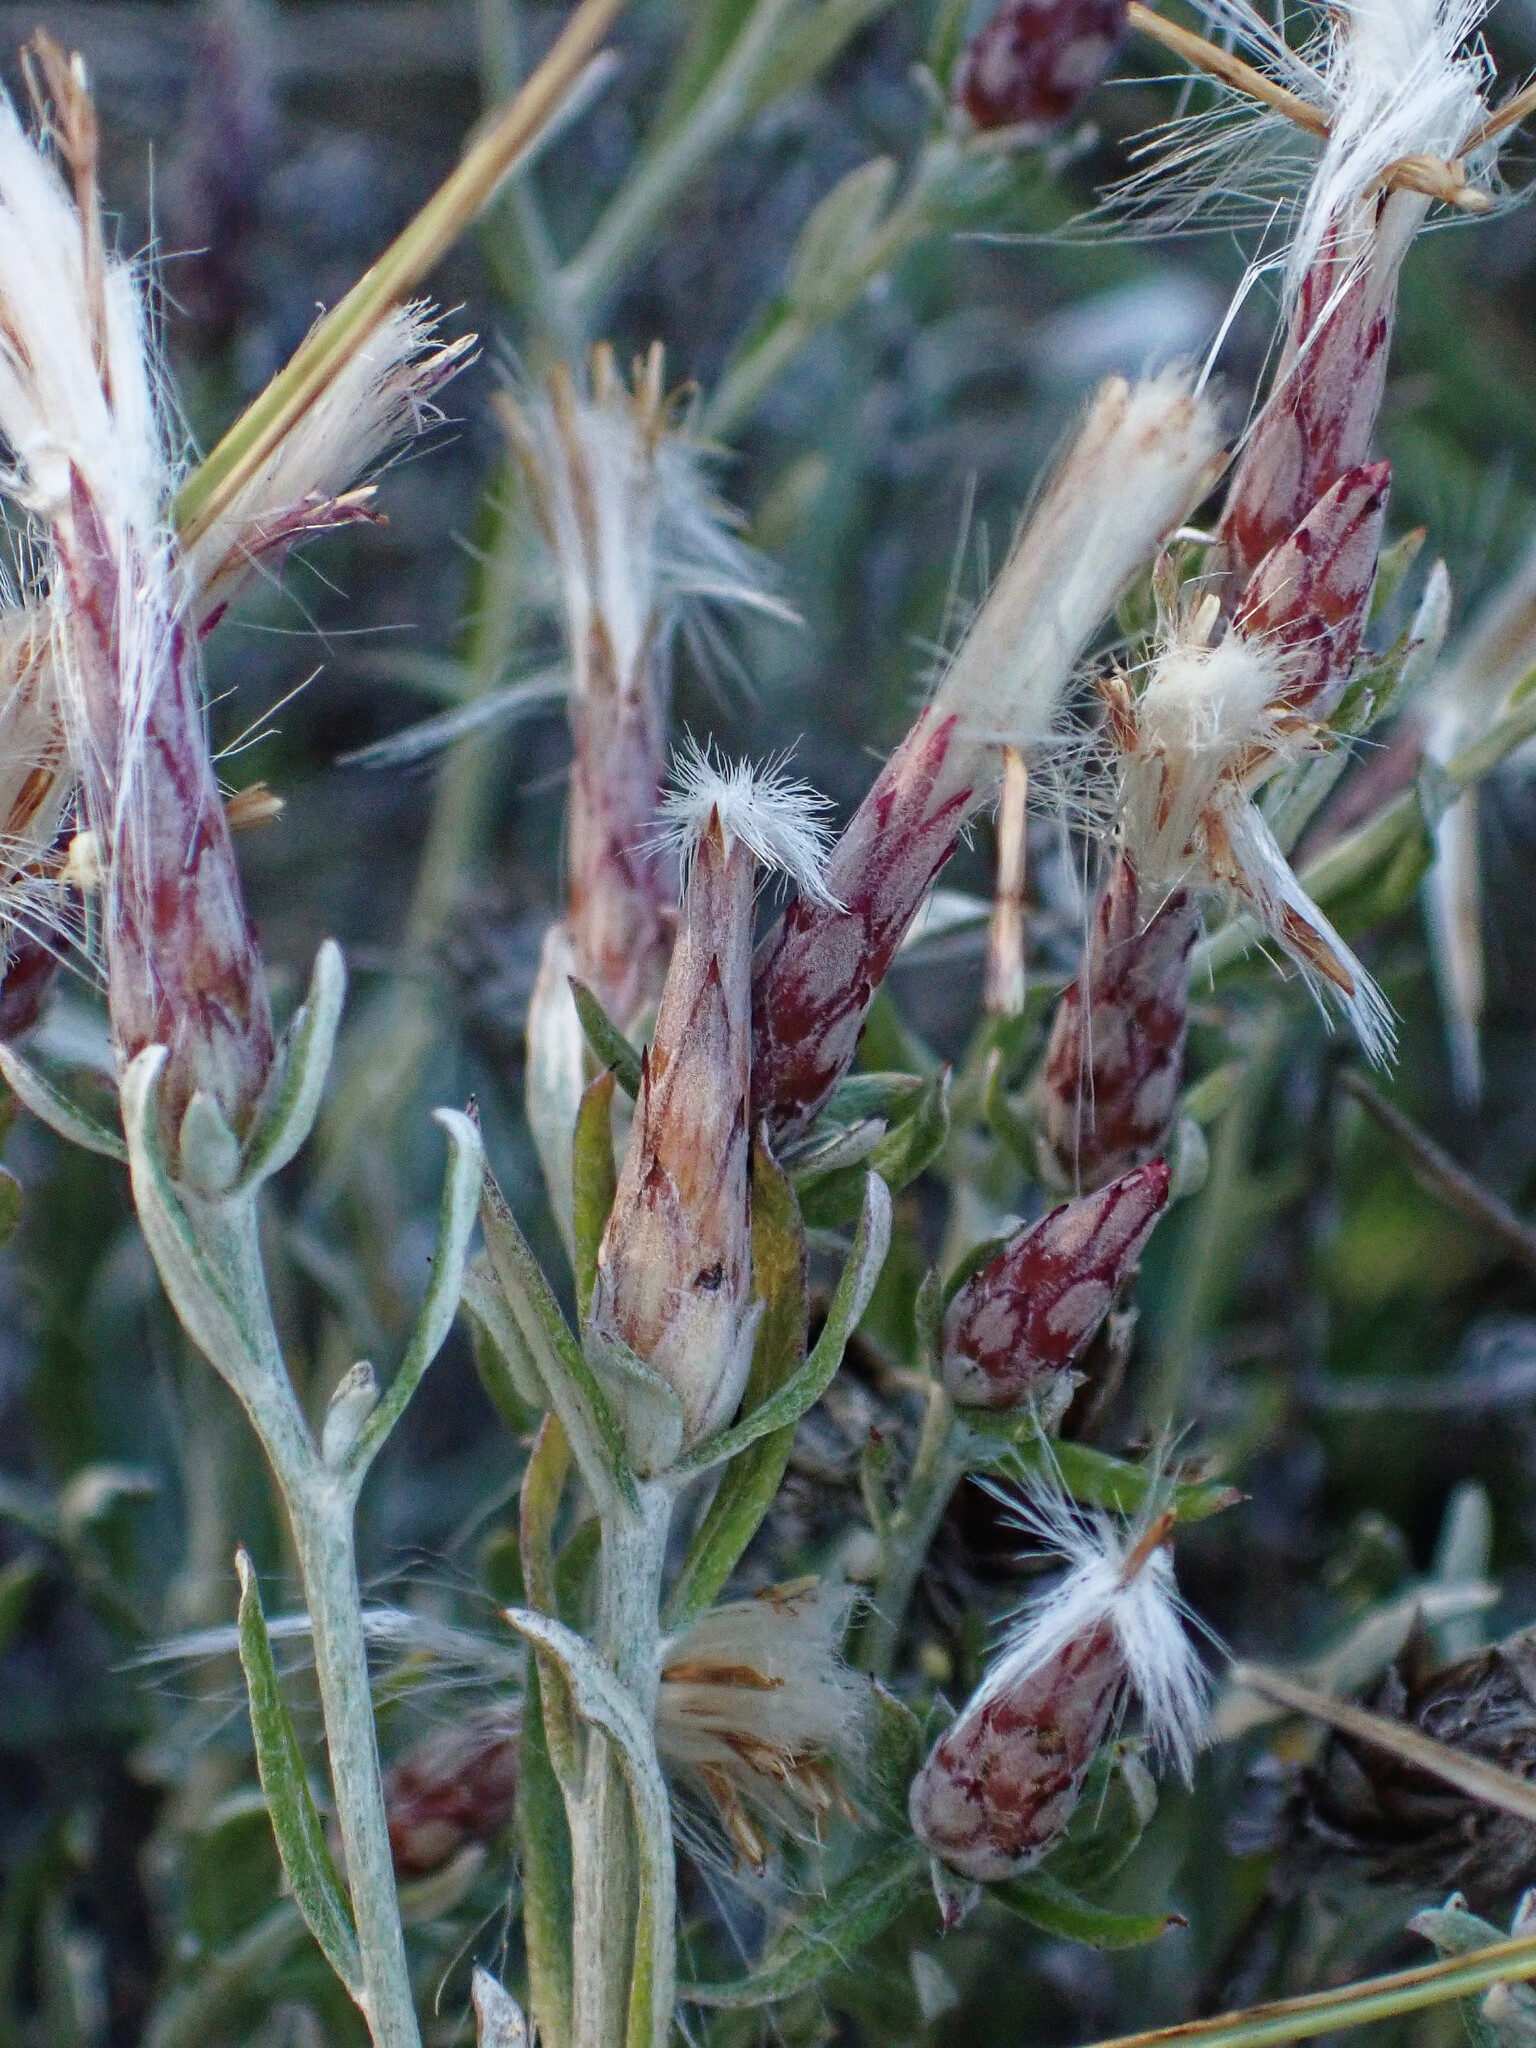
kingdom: Plantae
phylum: Tracheophyta
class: Magnoliopsida
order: Asterales
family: Asteraceae
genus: Staehelina
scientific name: Staehelina dubia
